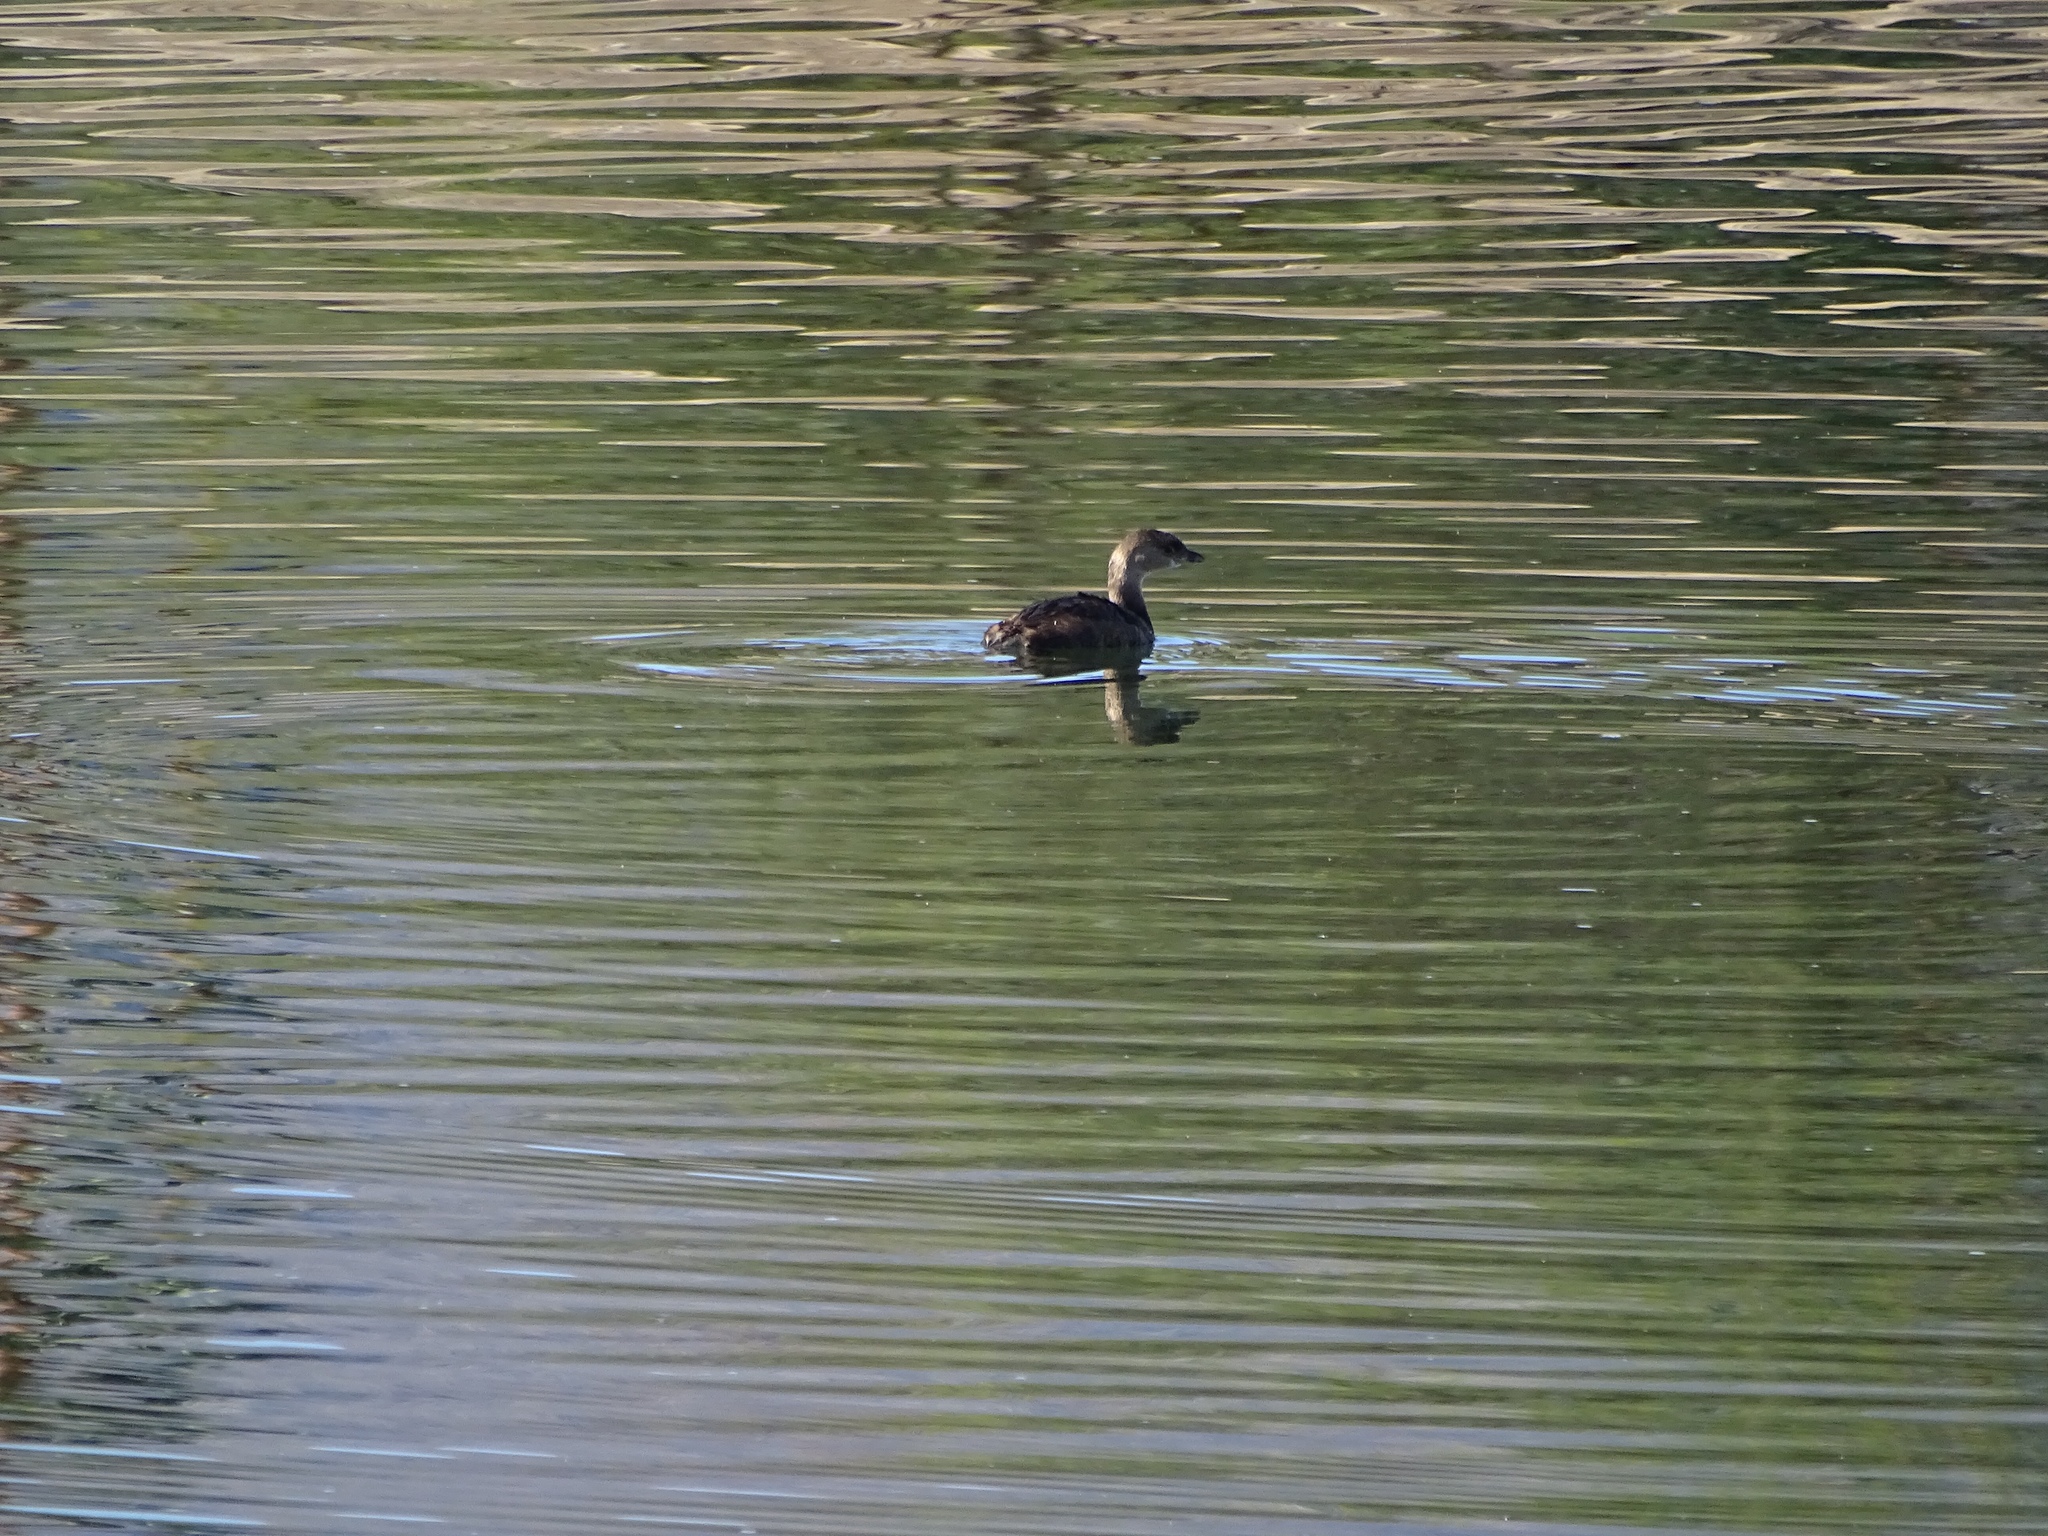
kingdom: Animalia
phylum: Chordata
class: Aves
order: Podicipediformes
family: Podicipedidae
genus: Podilymbus
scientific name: Podilymbus podiceps
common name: Pied-billed grebe
